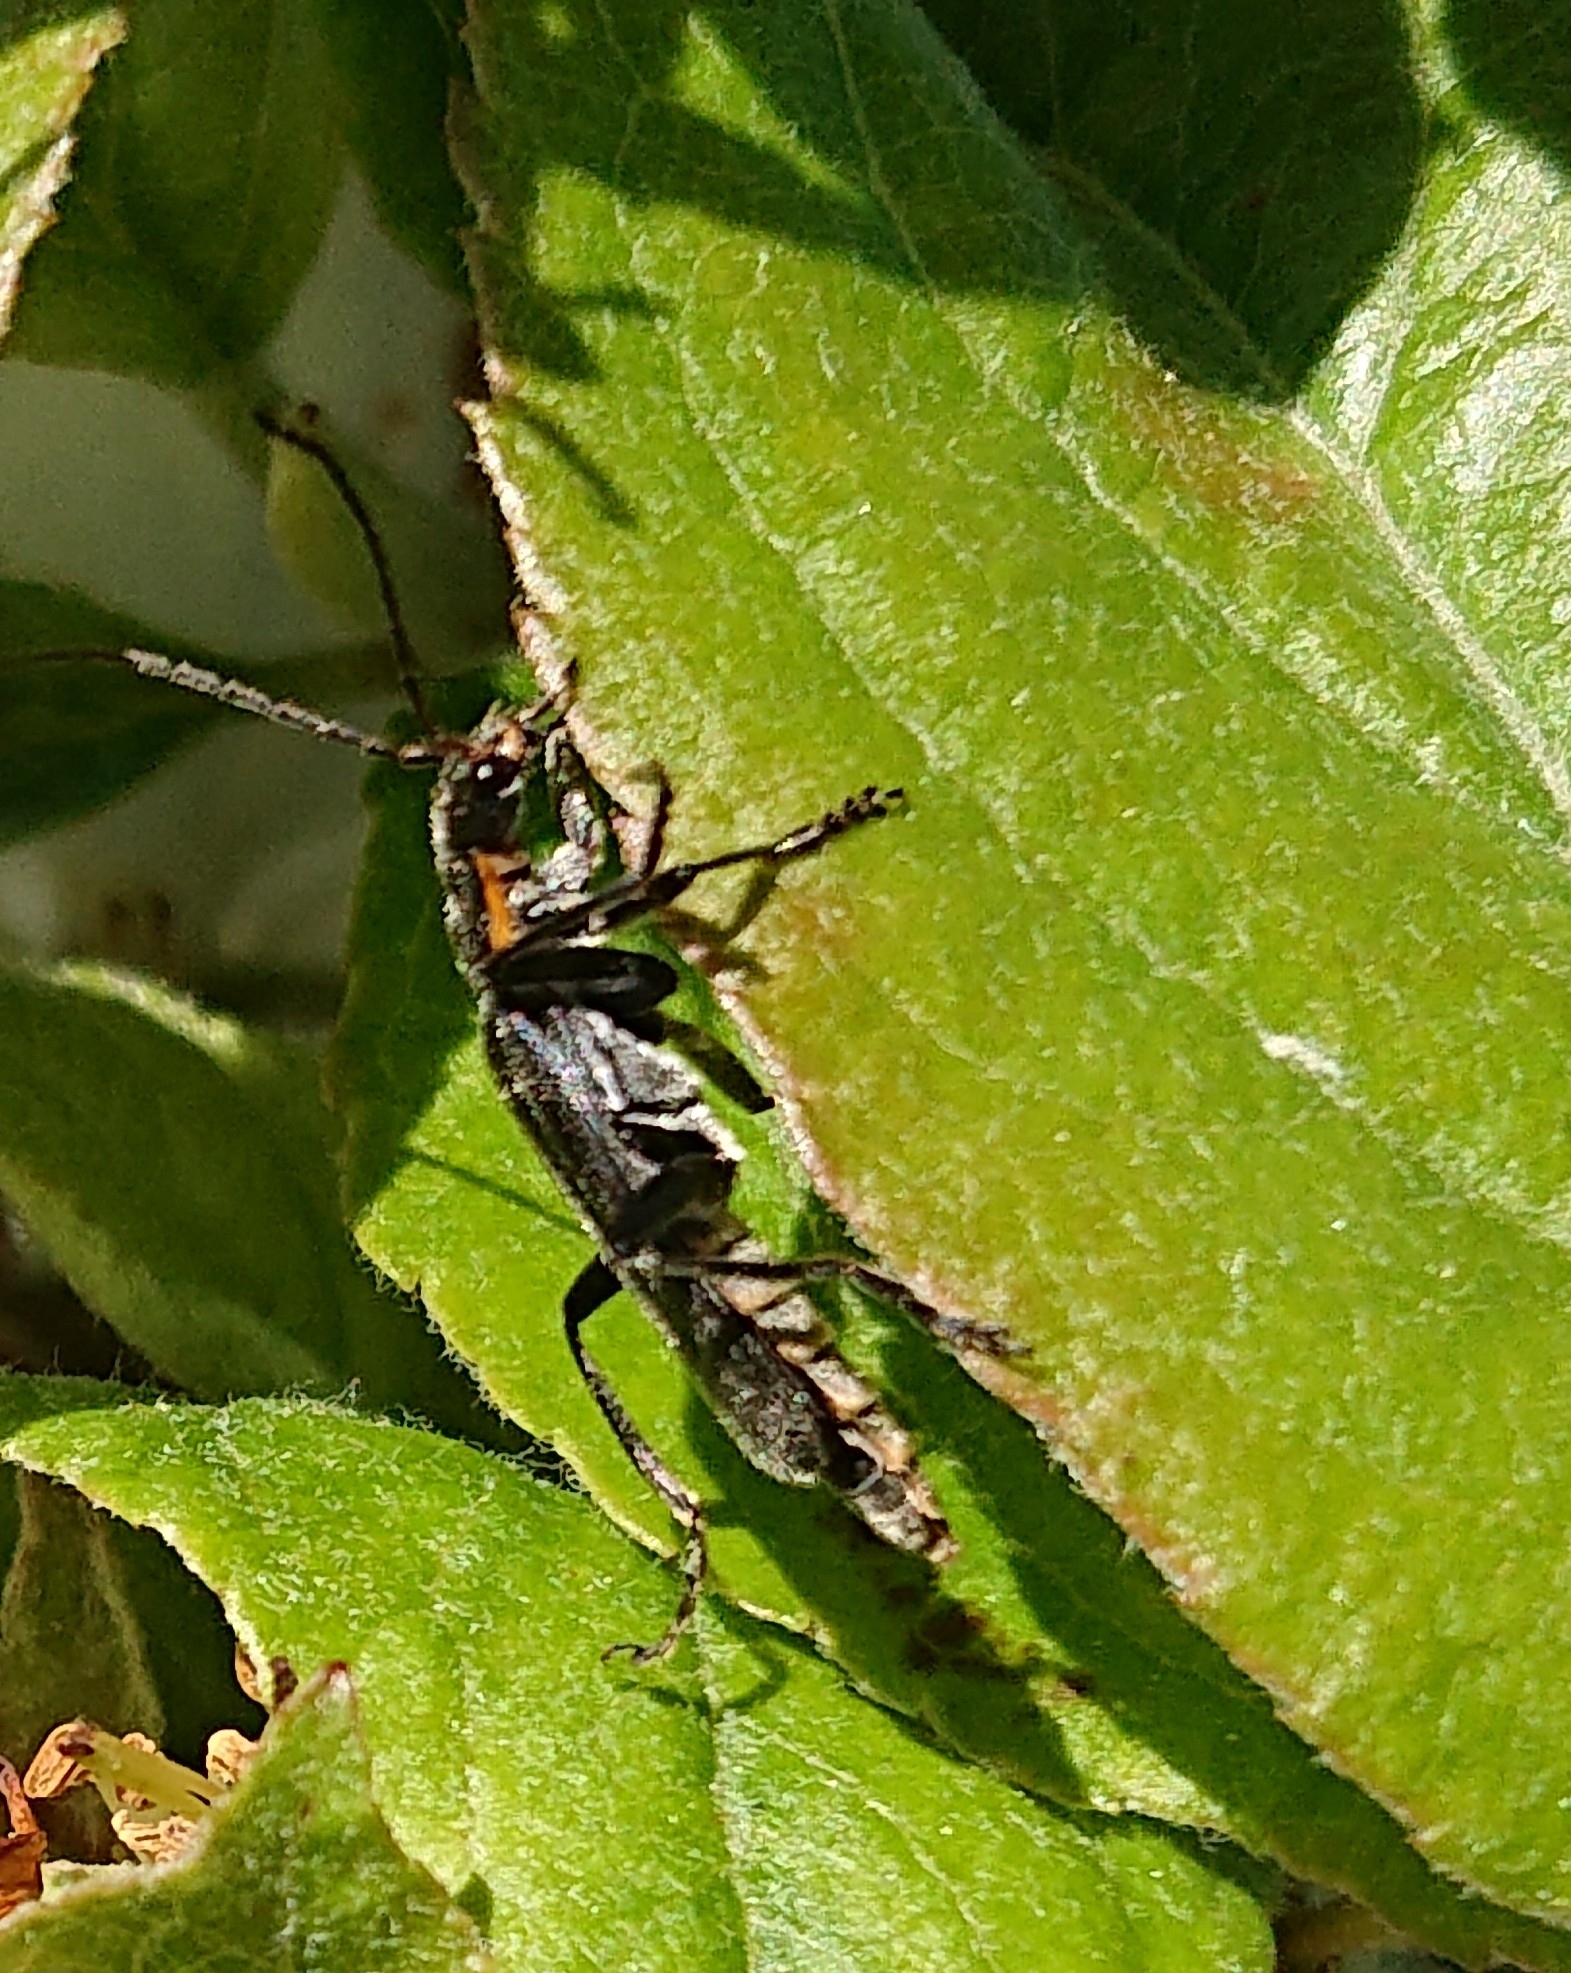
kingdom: Animalia
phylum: Arthropoda
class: Insecta
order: Coleoptera
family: Cantharidae
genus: Cantharis
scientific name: Cantharis obscura
